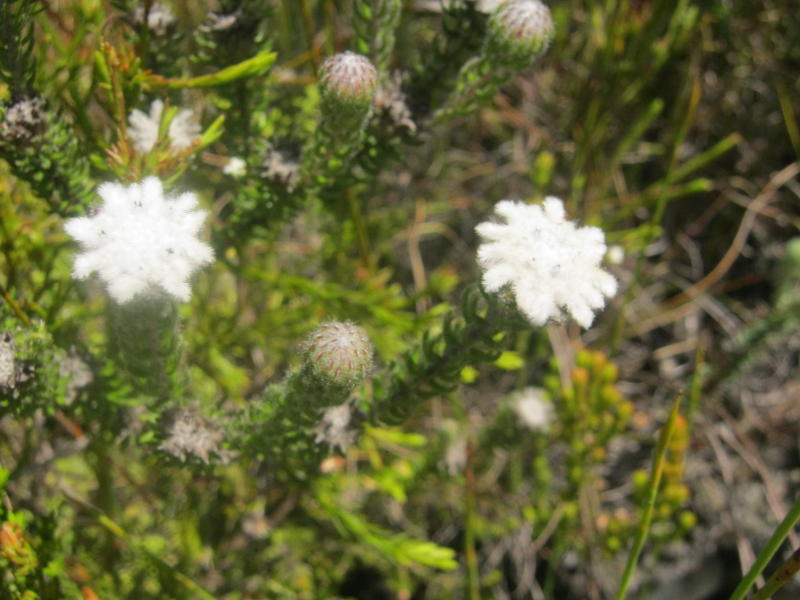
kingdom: Plantae
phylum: Tracheophyta
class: Magnoliopsida
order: Rosales
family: Rhamnaceae
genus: Phylica
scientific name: Phylica curvifolia
